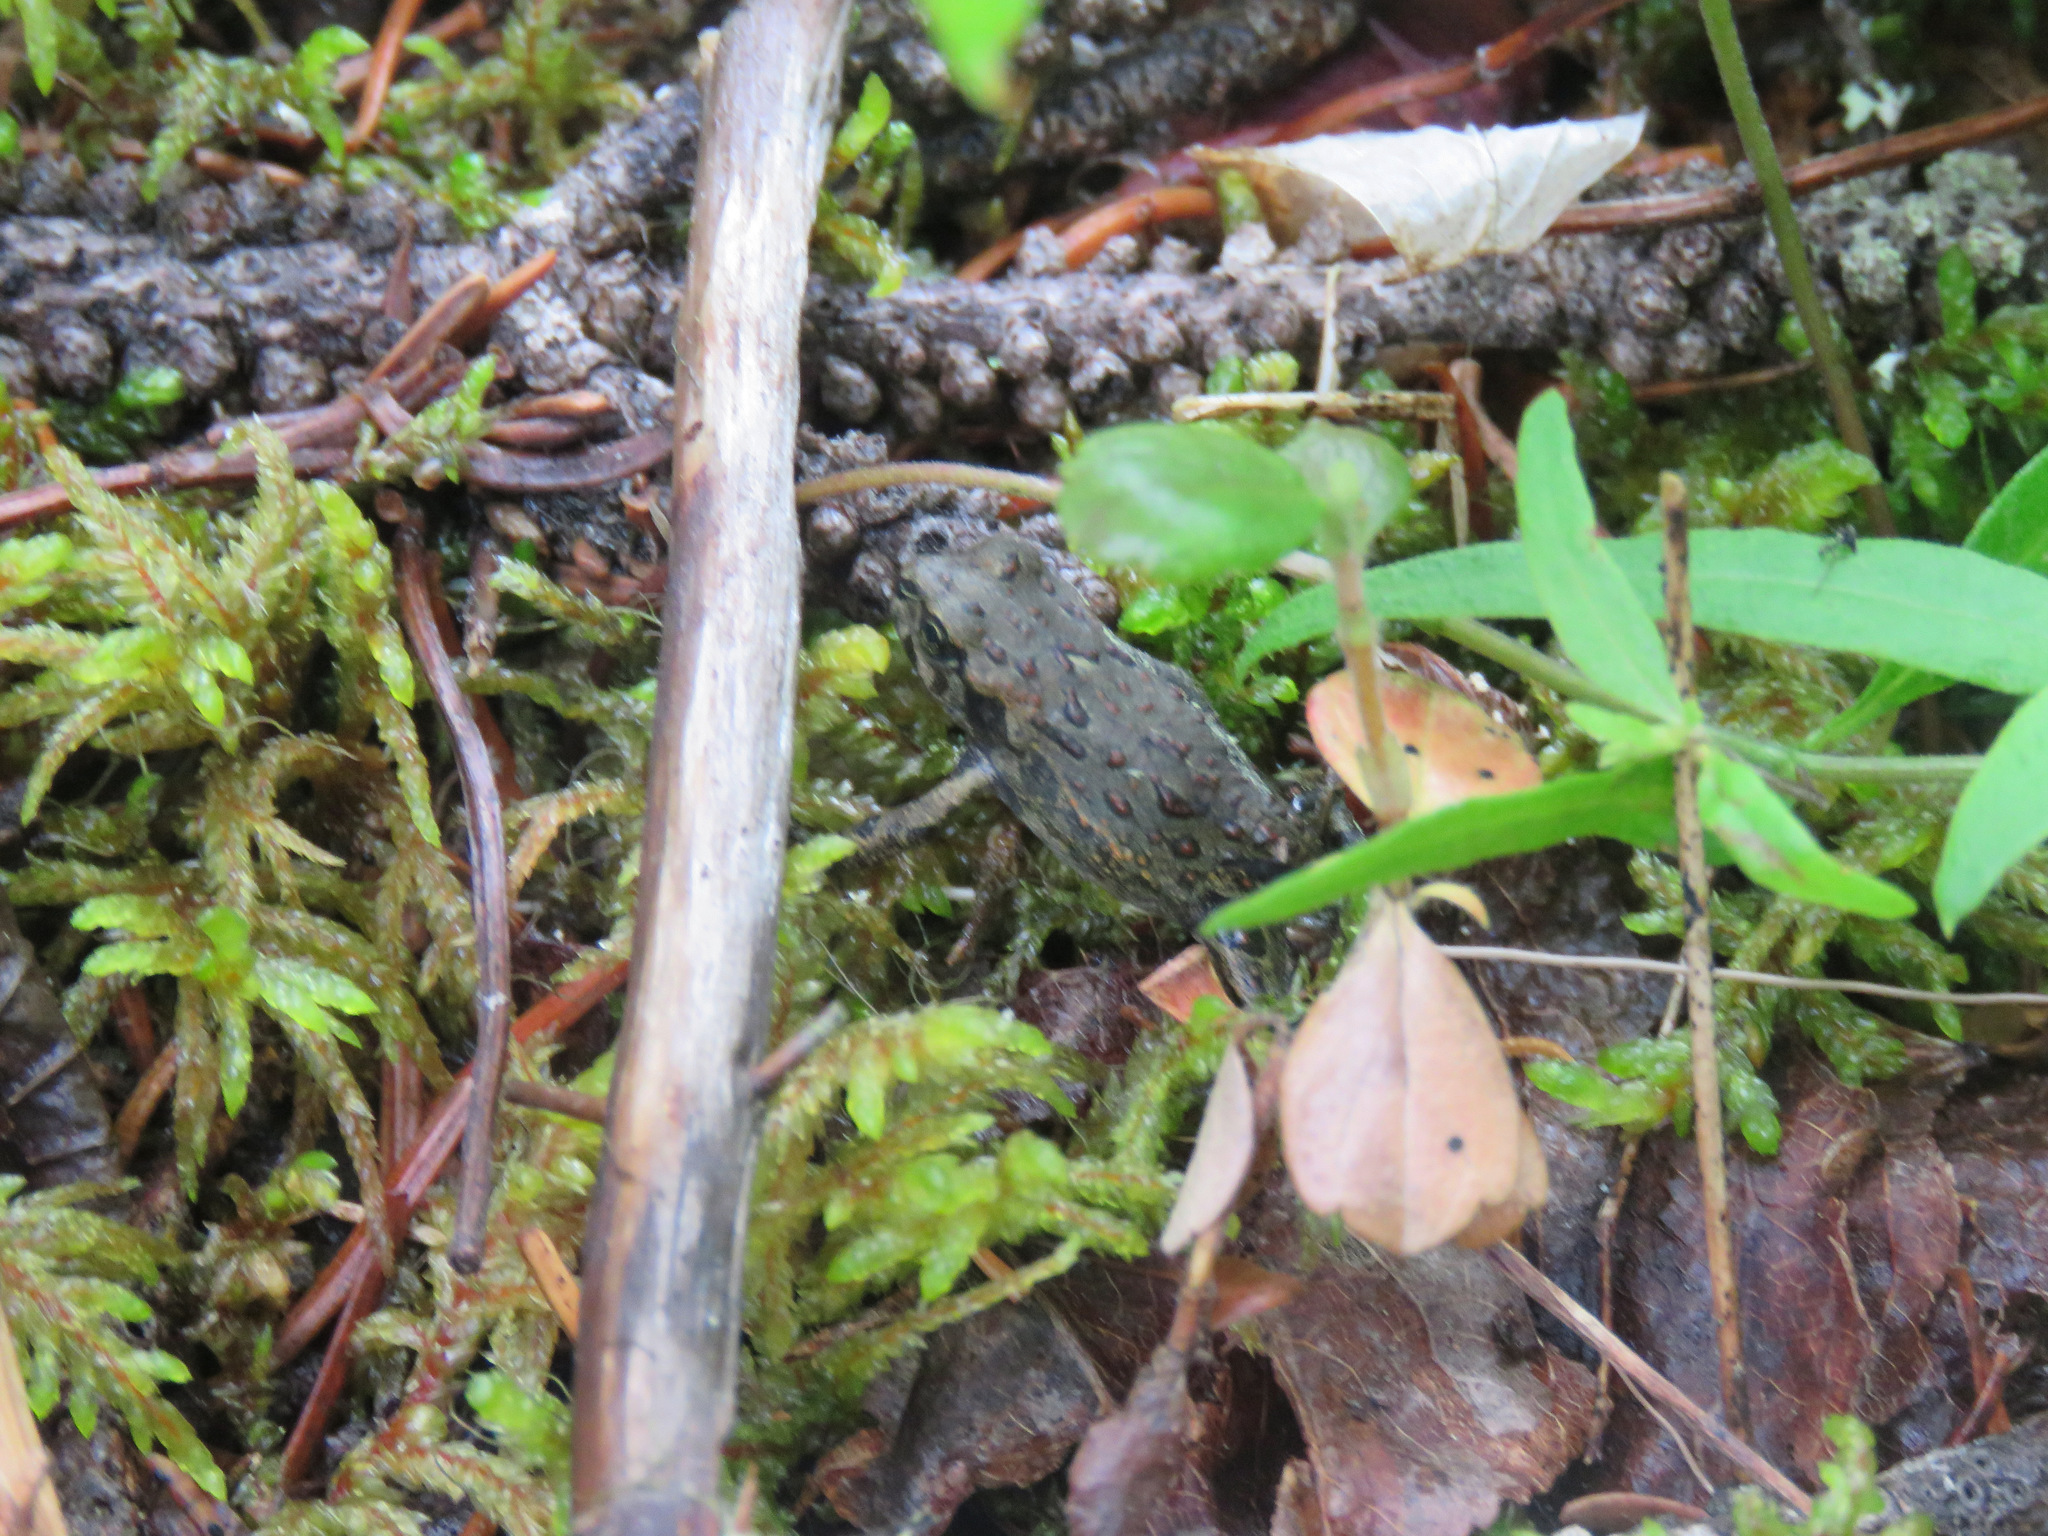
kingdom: Animalia
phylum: Chordata
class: Amphibia
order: Anura
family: Bufonidae
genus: Anaxyrus
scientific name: Anaxyrus boreas
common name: Western toad
